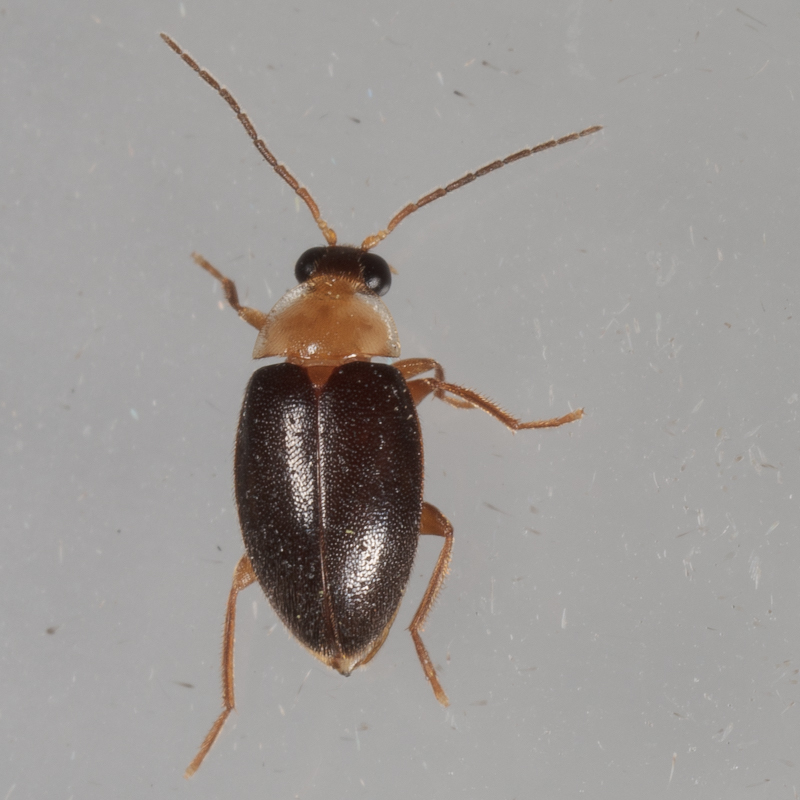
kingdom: Animalia
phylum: Arthropoda
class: Insecta
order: Coleoptera
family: Scirtidae
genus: Sacodes
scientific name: Sacodes pulchella
